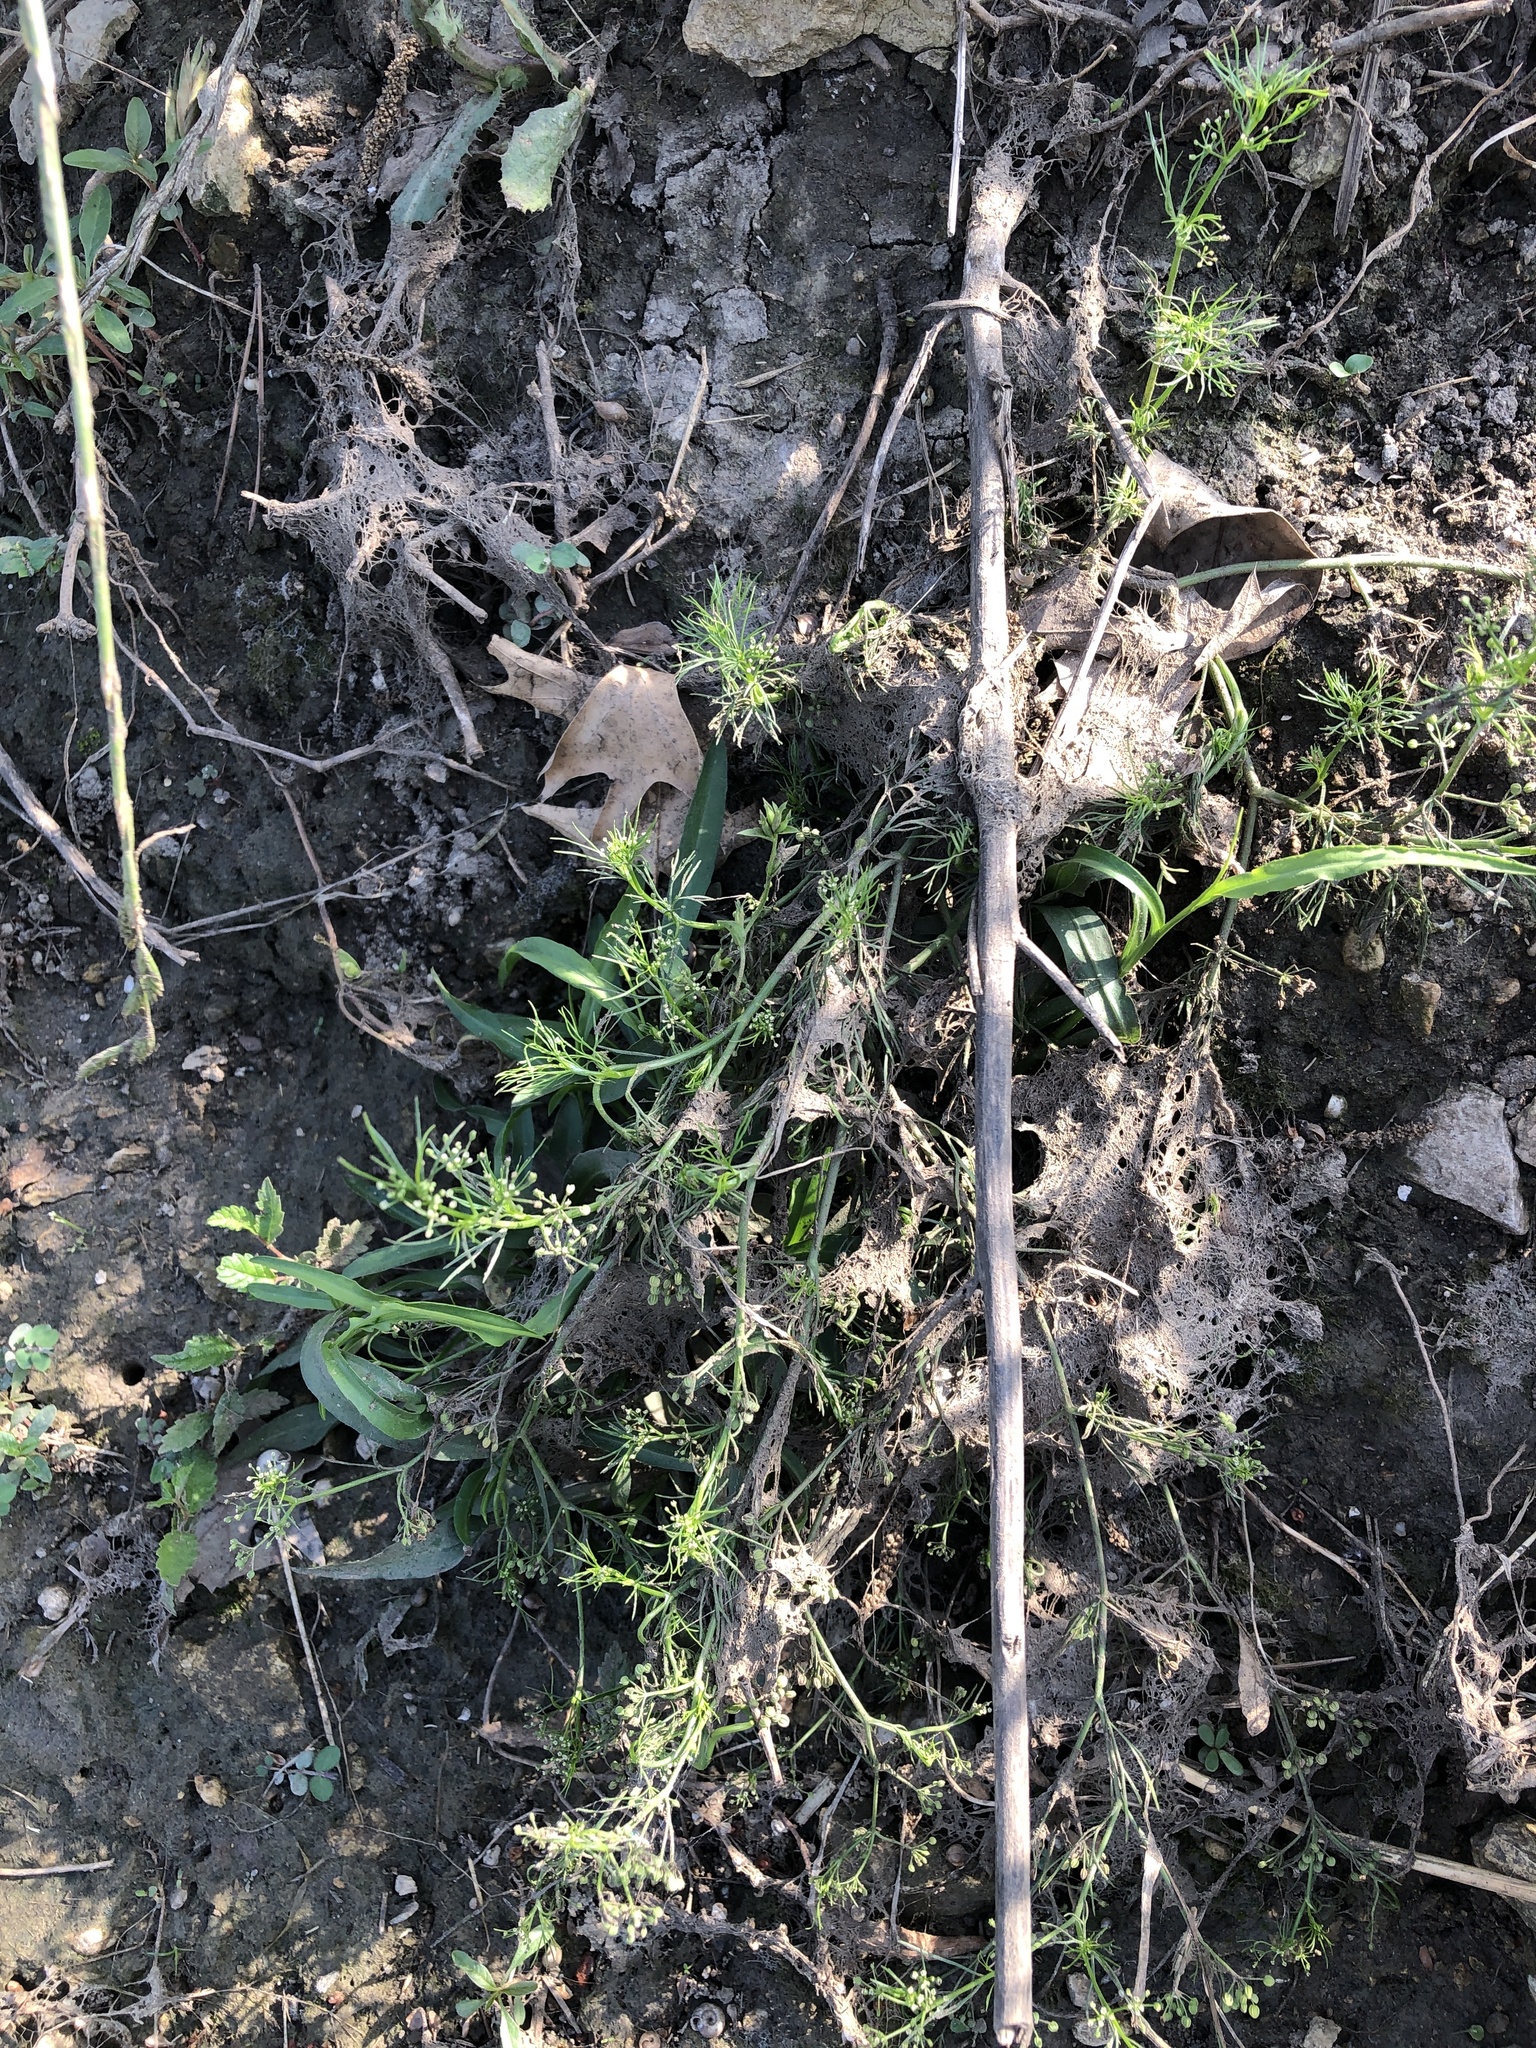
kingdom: Plantae
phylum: Tracheophyta
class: Magnoliopsida
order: Apiales
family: Apiaceae
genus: Cyclospermum
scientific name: Cyclospermum leptophyllum
